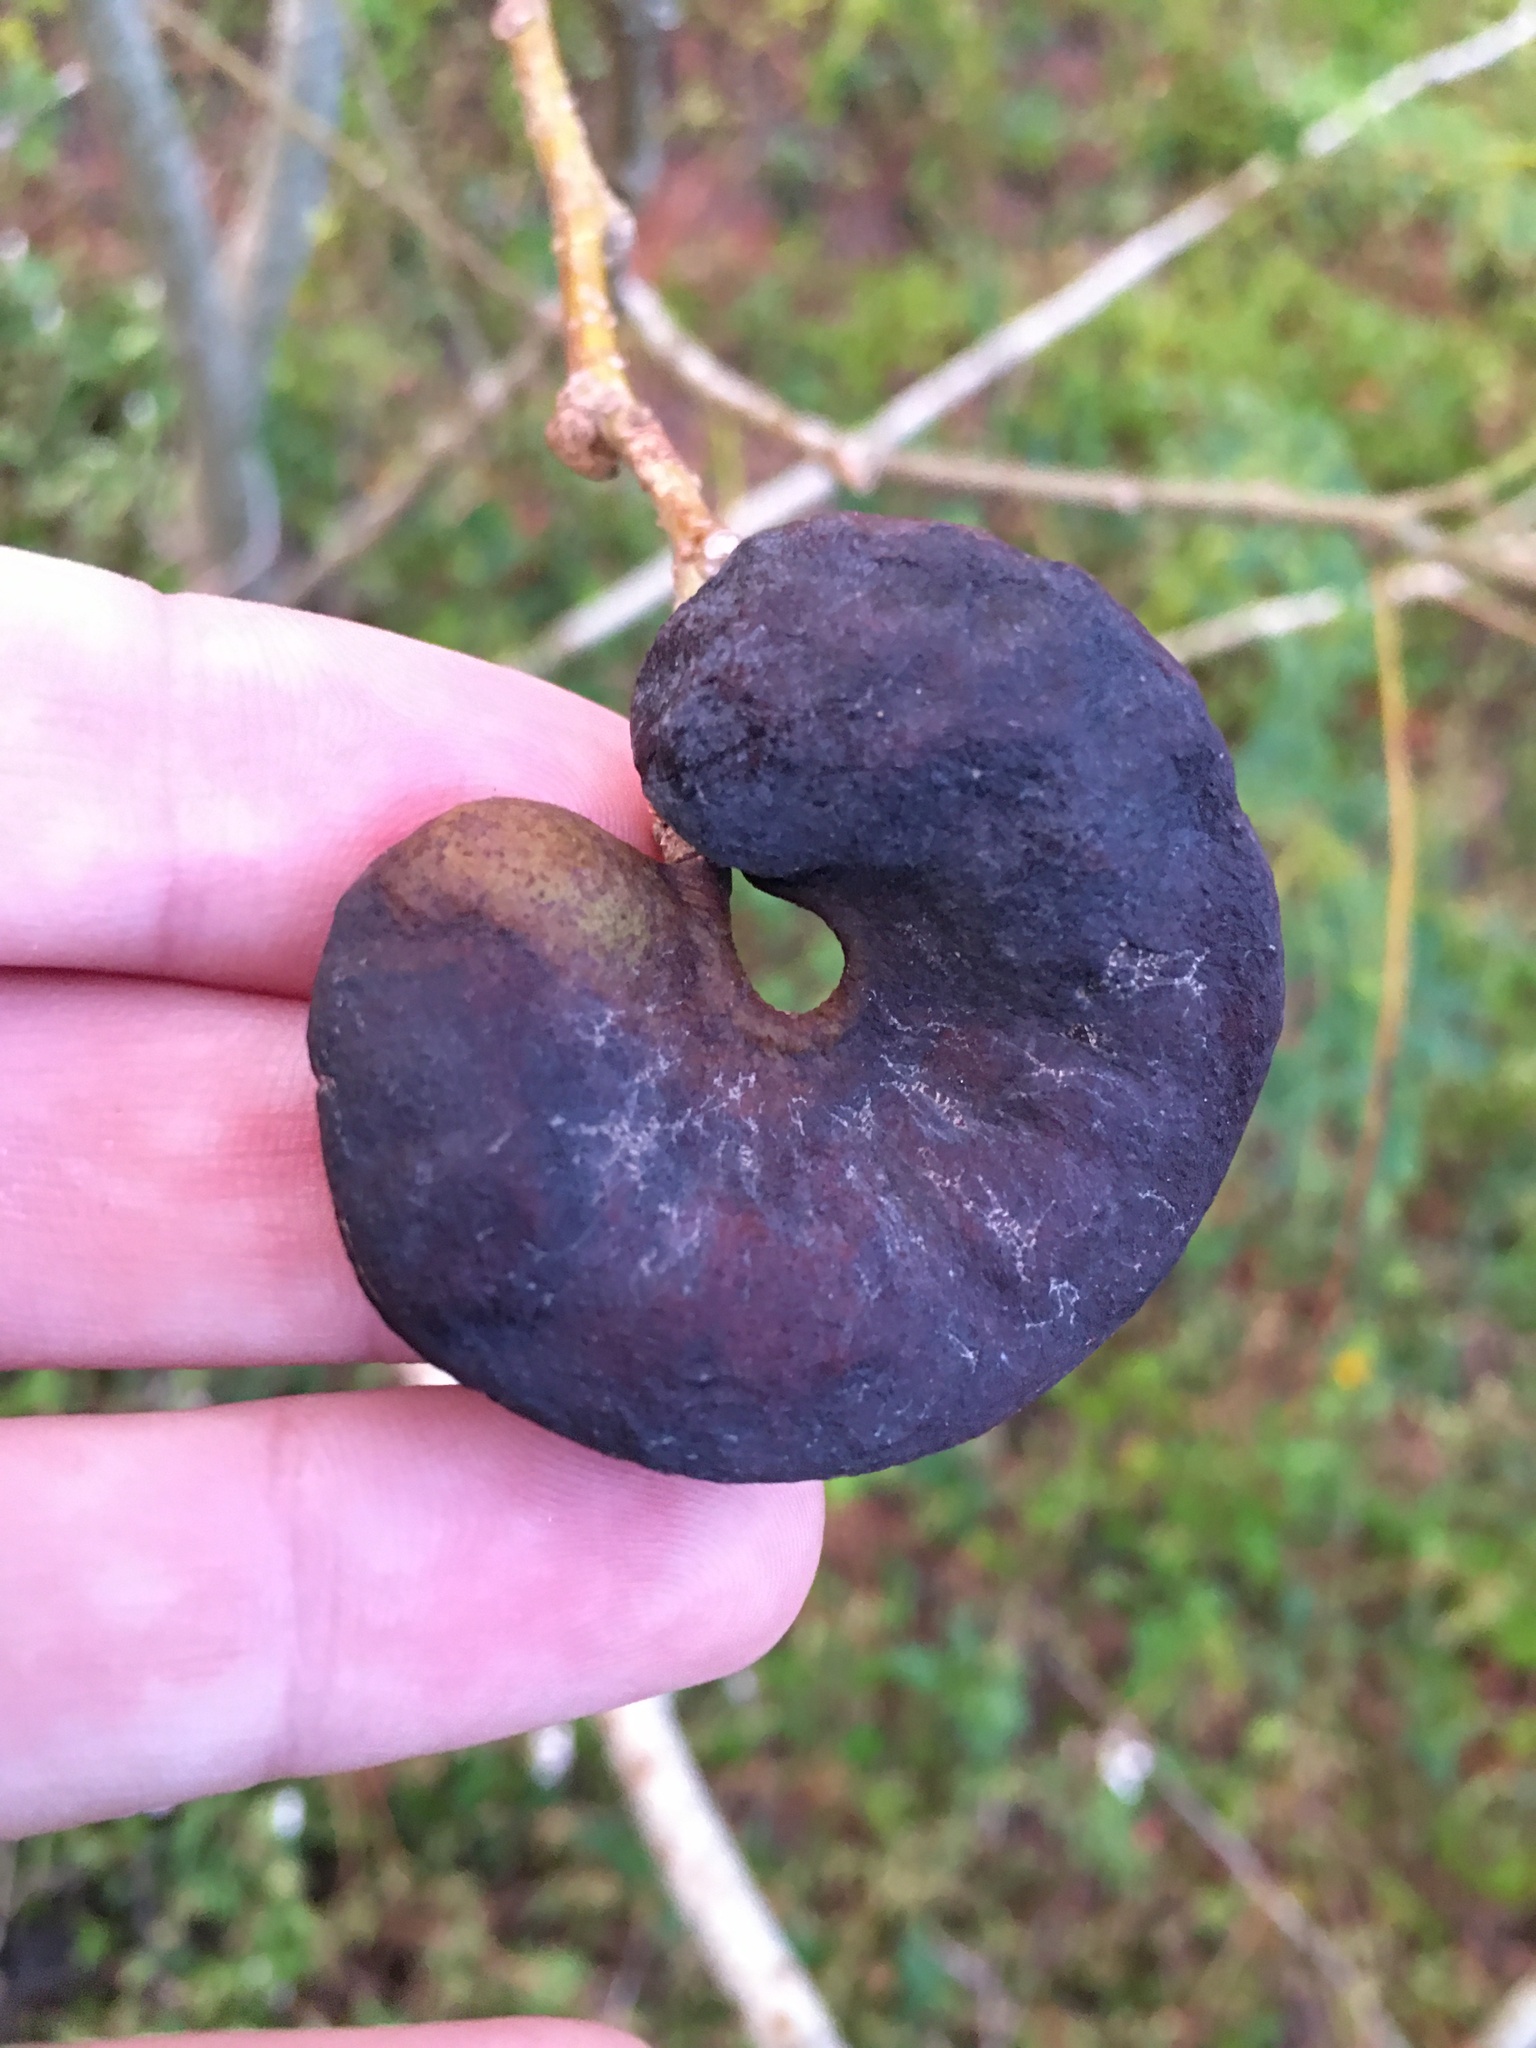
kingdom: Plantae
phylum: Tracheophyta
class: Magnoliopsida
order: Fabales
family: Fabaceae
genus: Enterolobium
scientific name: Enterolobium contortisiliquum
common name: Pacara earpod tree
